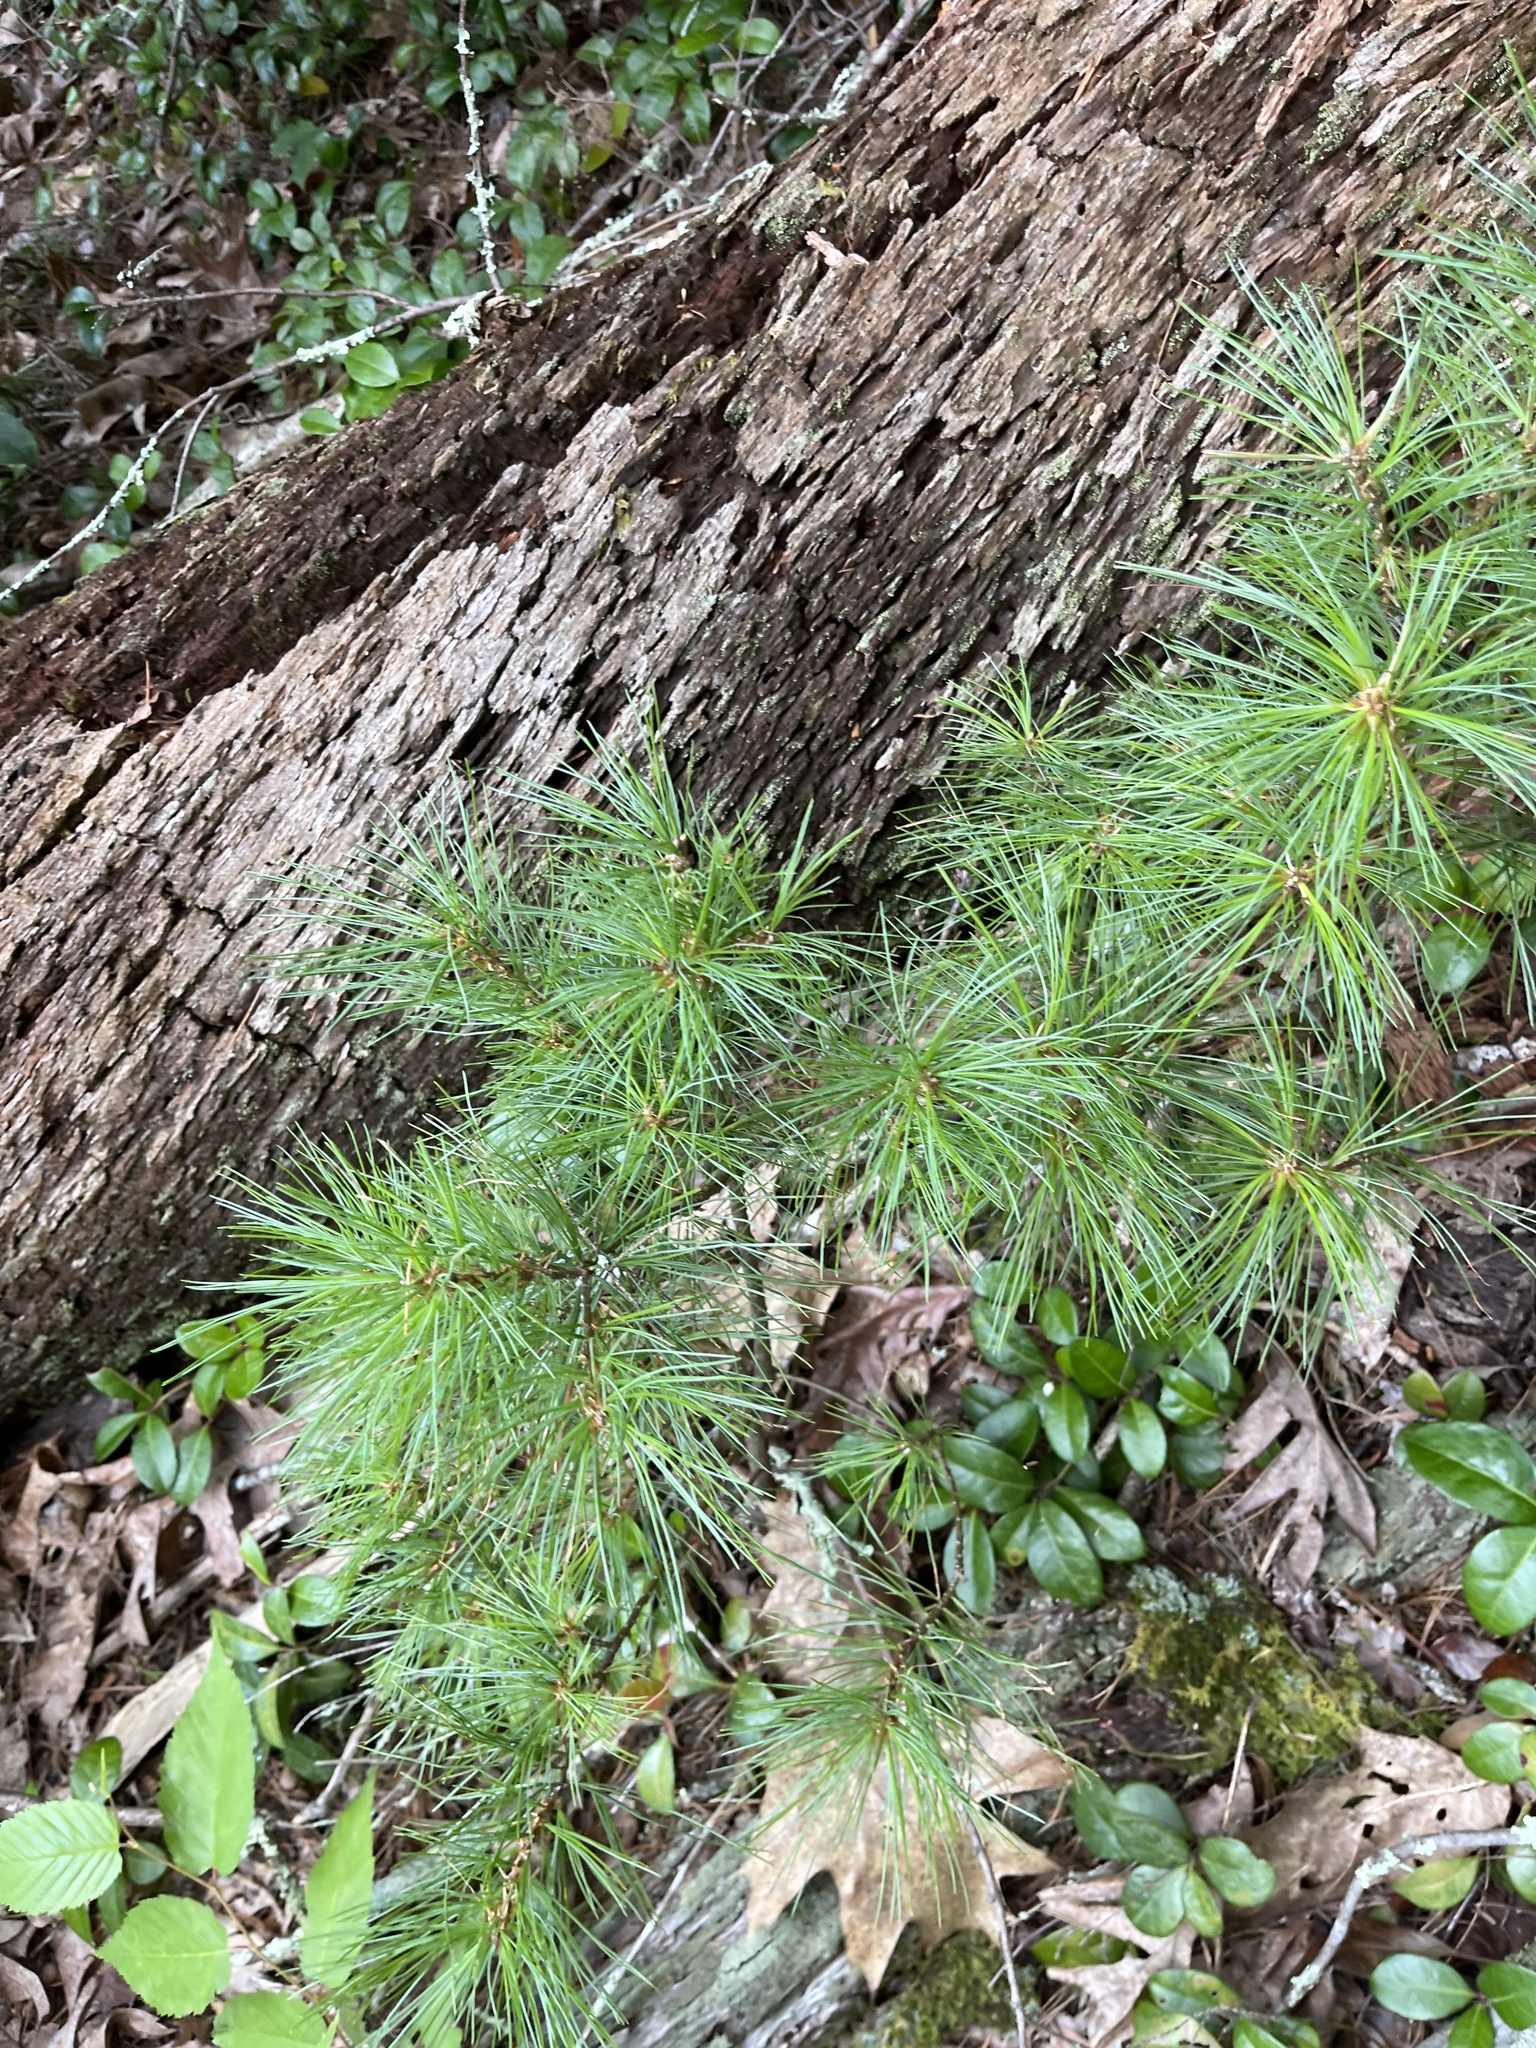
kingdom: Plantae
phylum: Tracheophyta
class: Pinopsida
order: Pinales
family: Pinaceae
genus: Pinus
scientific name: Pinus strobus
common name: Weymouth pine
